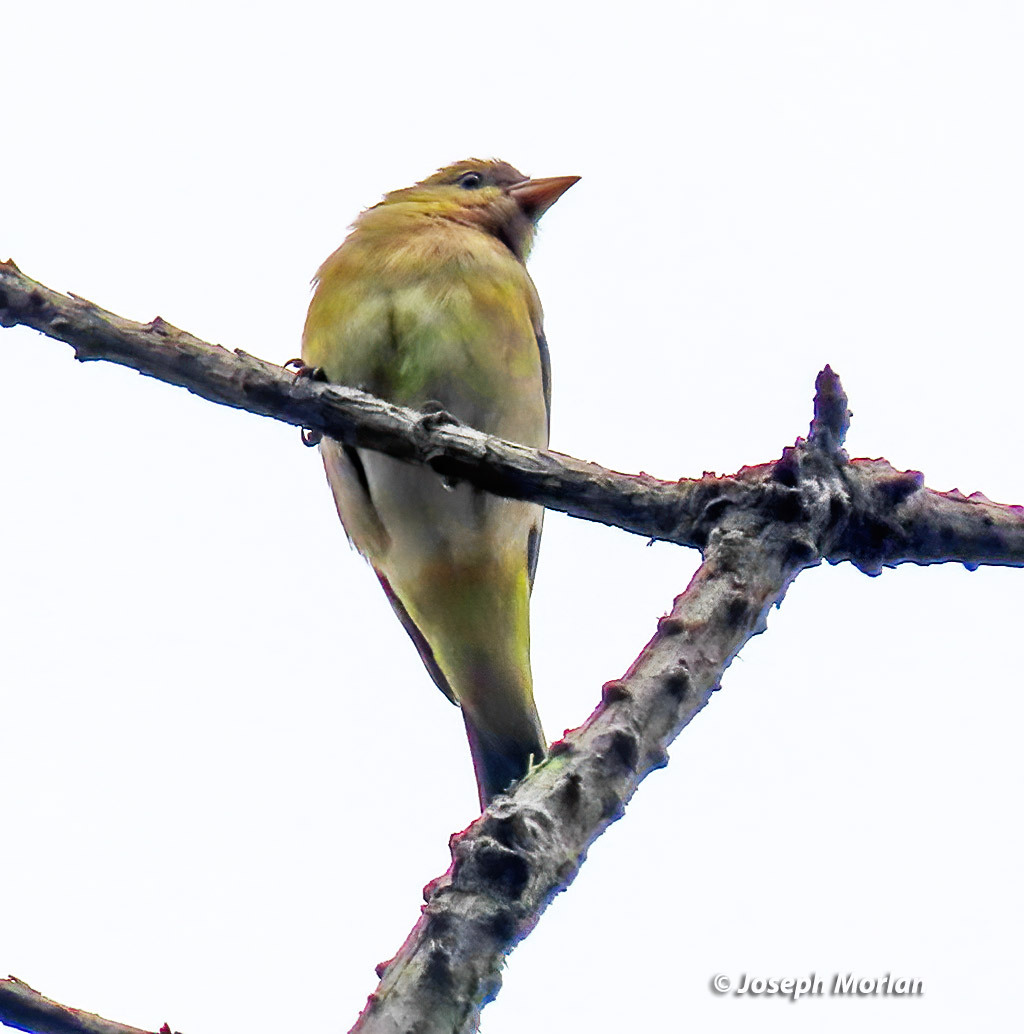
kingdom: Animalia
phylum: Chordata
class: Aves
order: Passeriformes
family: Cardinalidae
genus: Piranga
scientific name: Piranga ludoviciana
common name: Western tanager
